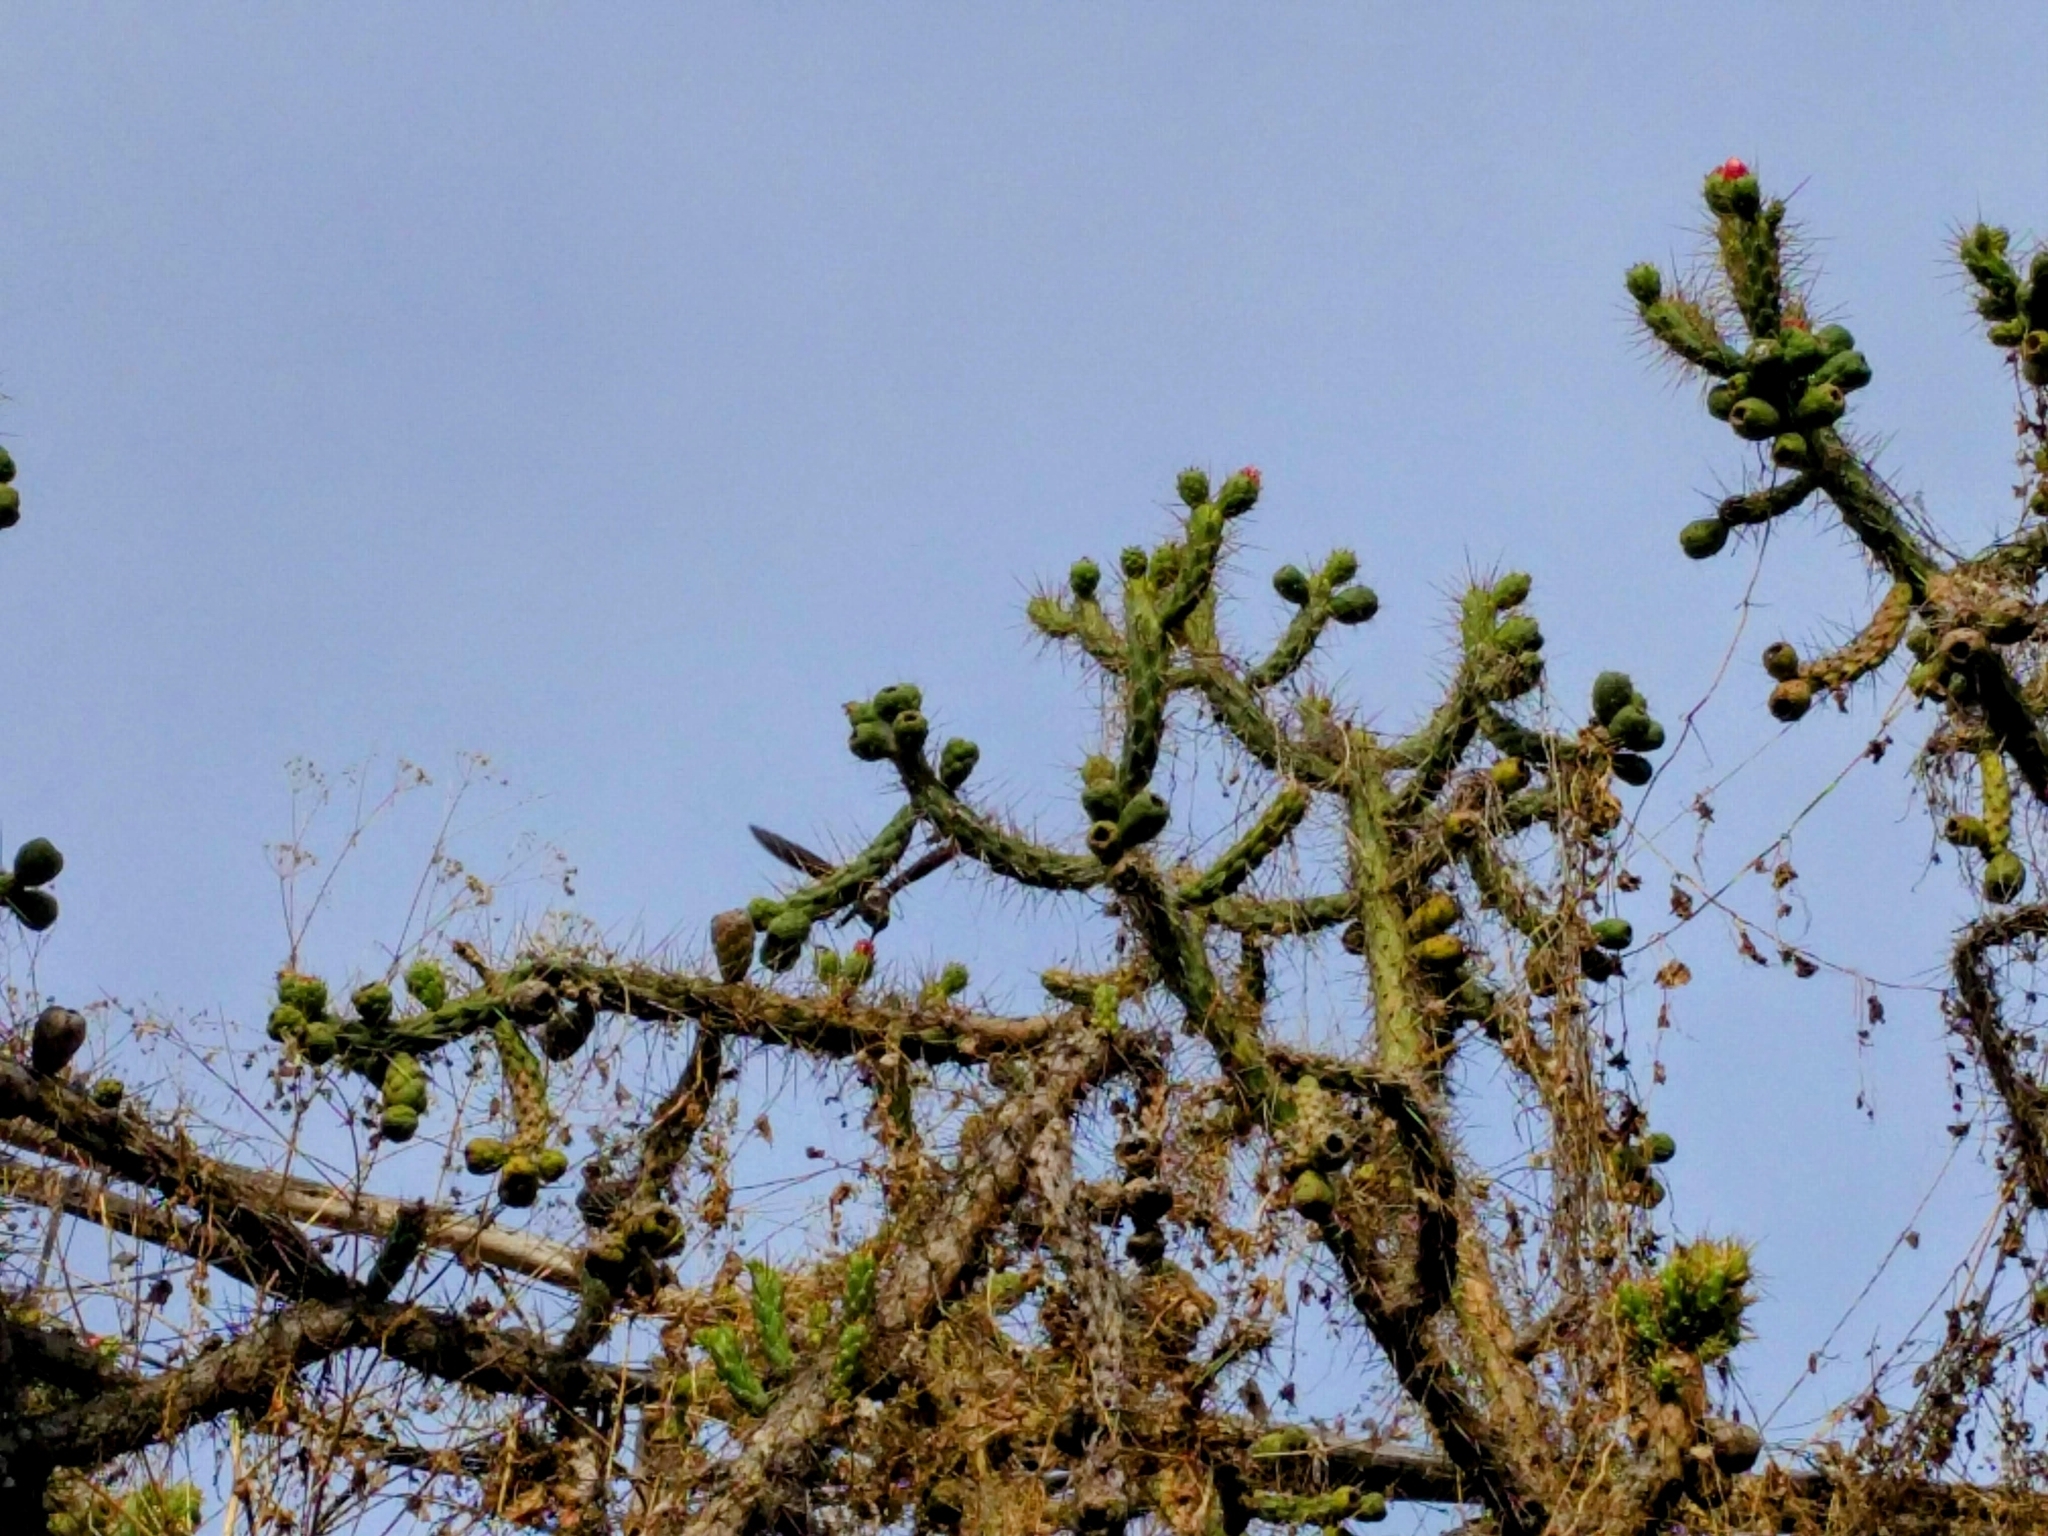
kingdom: Plantae
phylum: Tracheophyta
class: Magnoliopsida
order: Caryophyllales
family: Cactaceae
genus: Austrocylindropuntia
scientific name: Austrocylindropuntia subulata
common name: Eve's needle cactus
